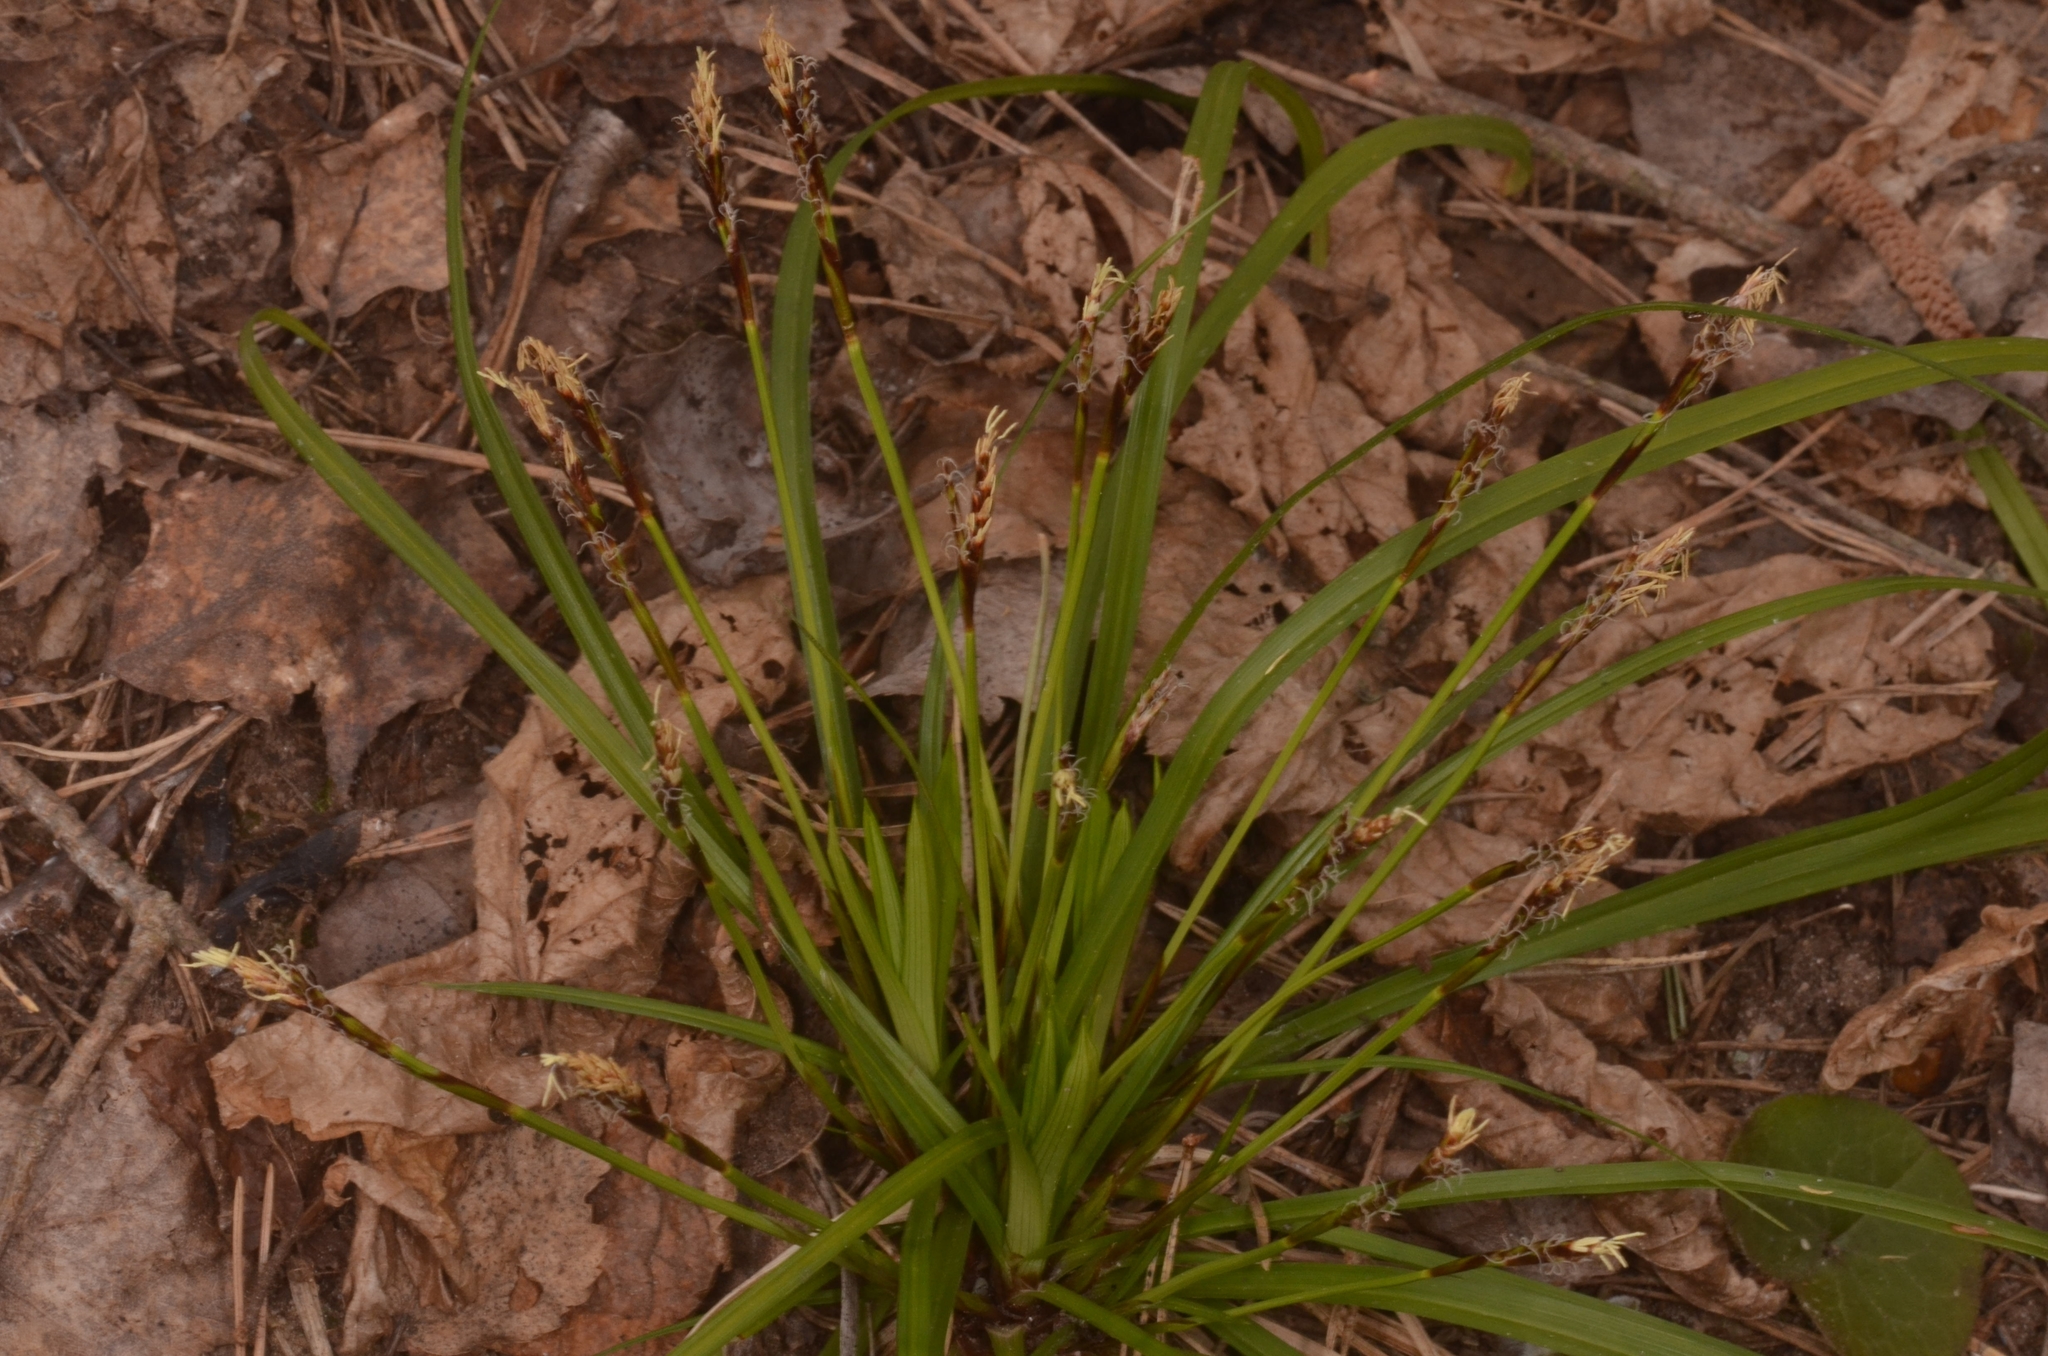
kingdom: Plantae
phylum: Tracheophyta
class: Liliopsida
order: Poales
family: Cyperaceae
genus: Carex
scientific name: Carex digitata
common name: Fingered sedge
